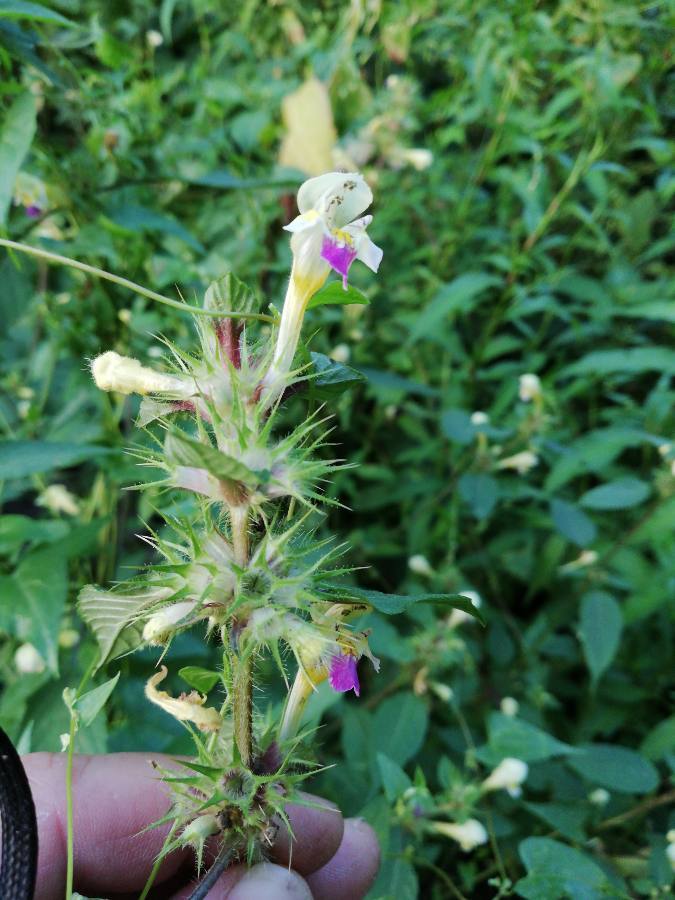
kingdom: Plantae
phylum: Tracheophyta
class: Magnoliopsida
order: Lamiales
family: Lamiaceae
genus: Galeopsis
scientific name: Galeopsis speciosa
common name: Large-flowered hemp-nettle
